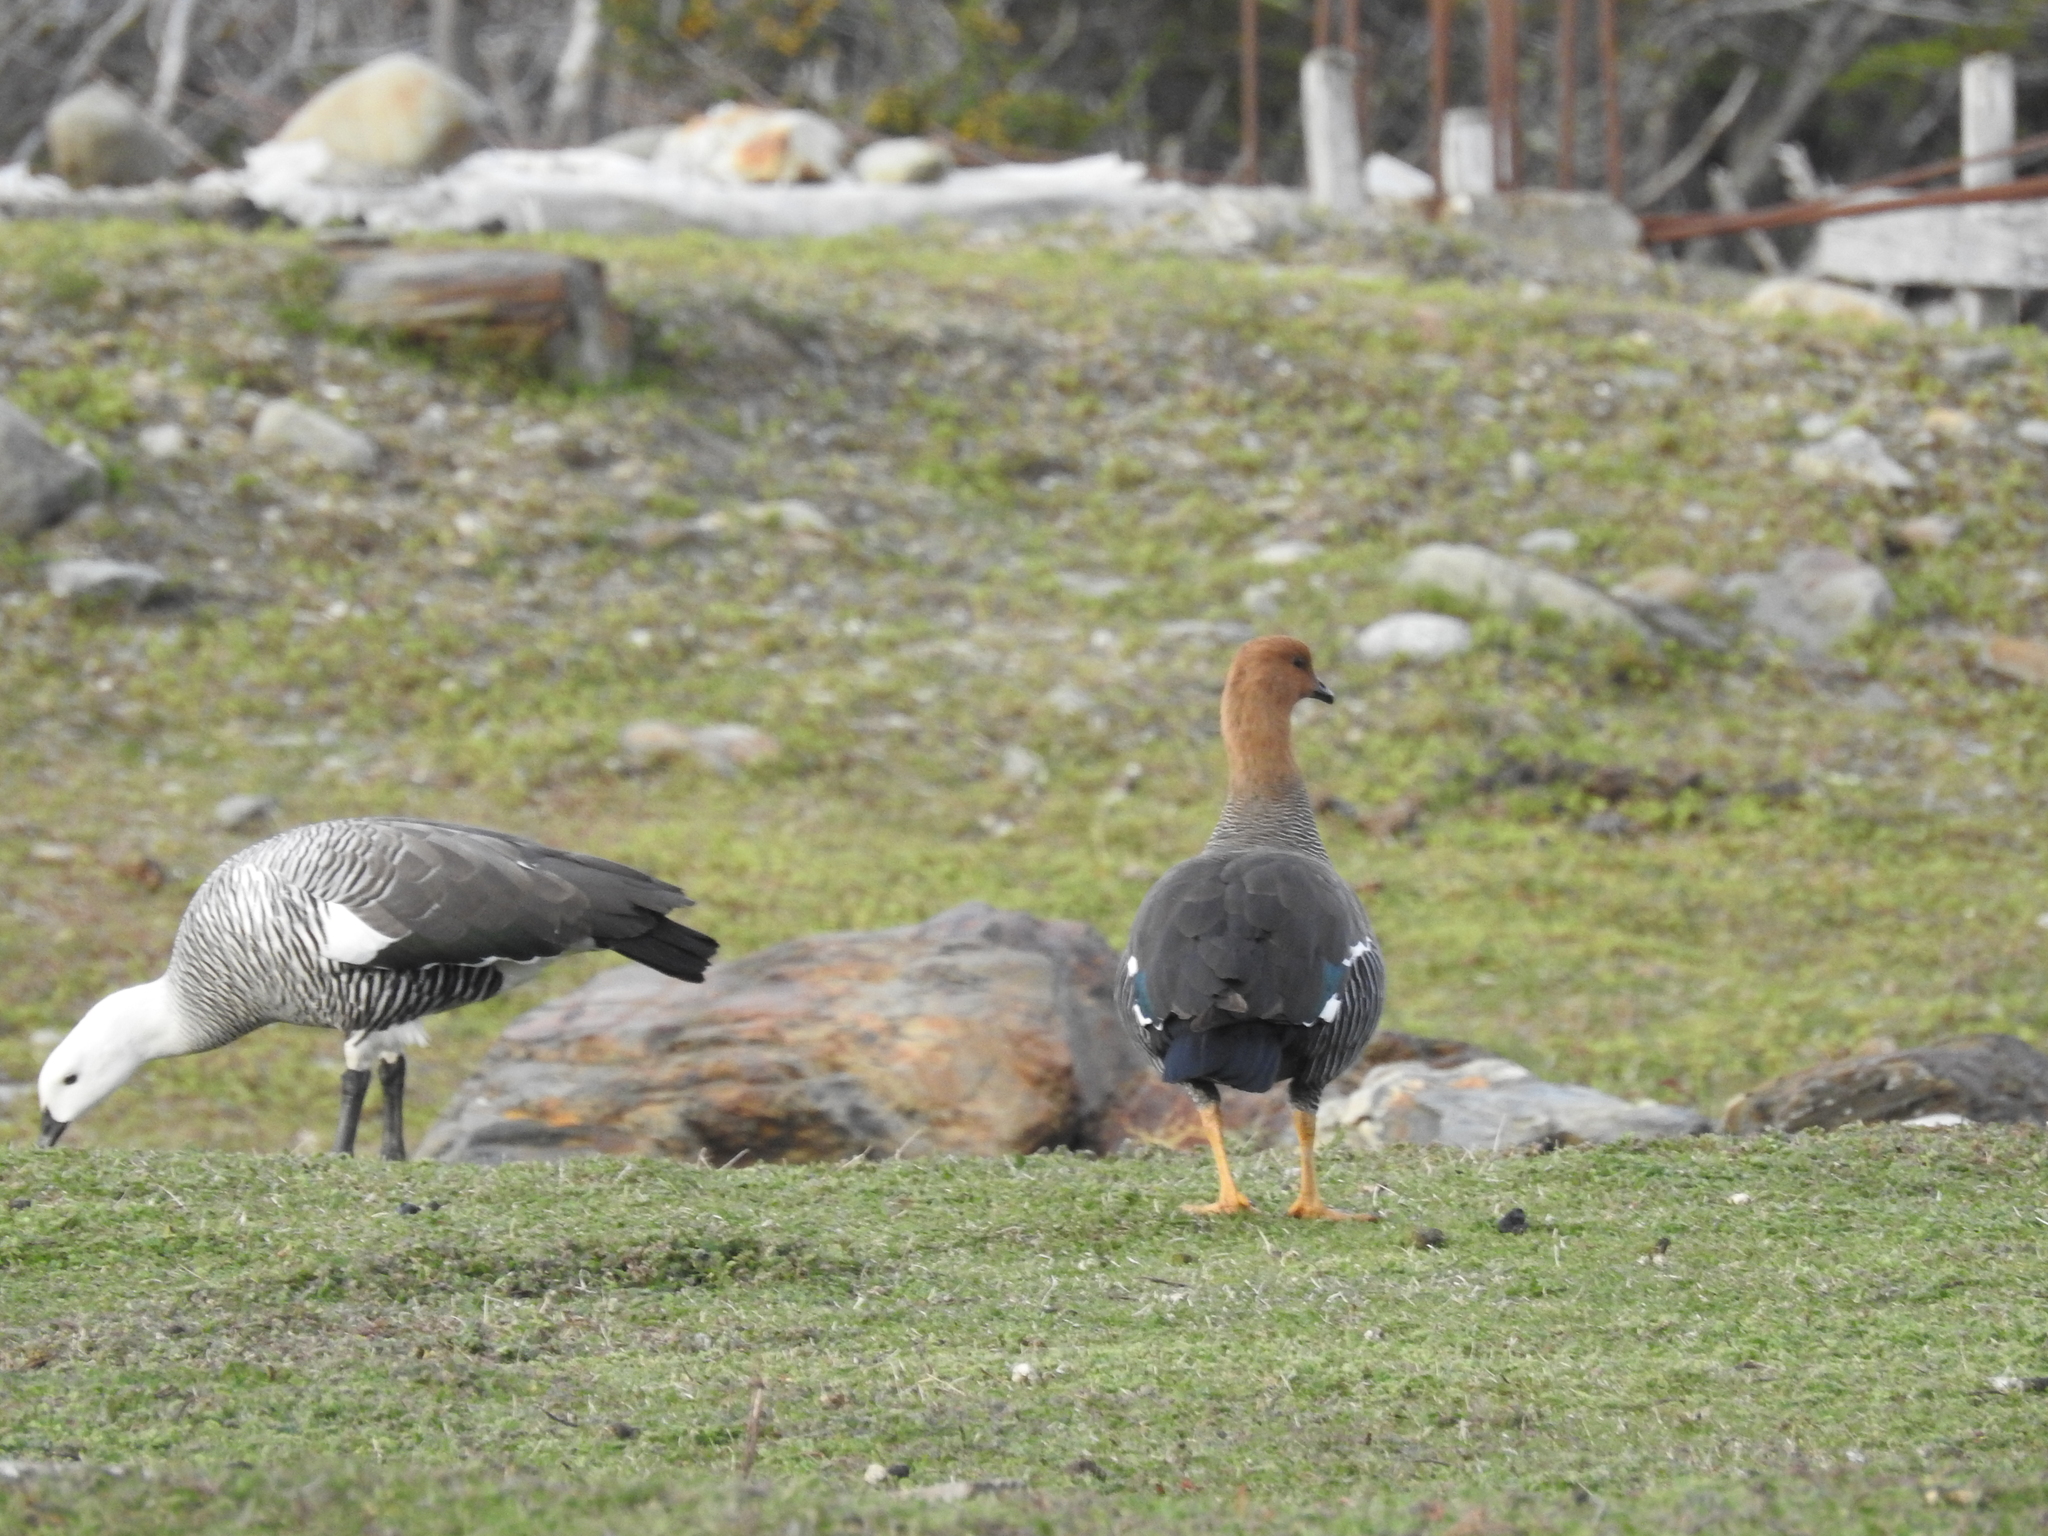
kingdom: Animalia
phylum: Chordata
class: Aves
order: Anseriformes
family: Anatidae
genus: Chloephaga
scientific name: Chloephaga picta
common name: Upland goose
